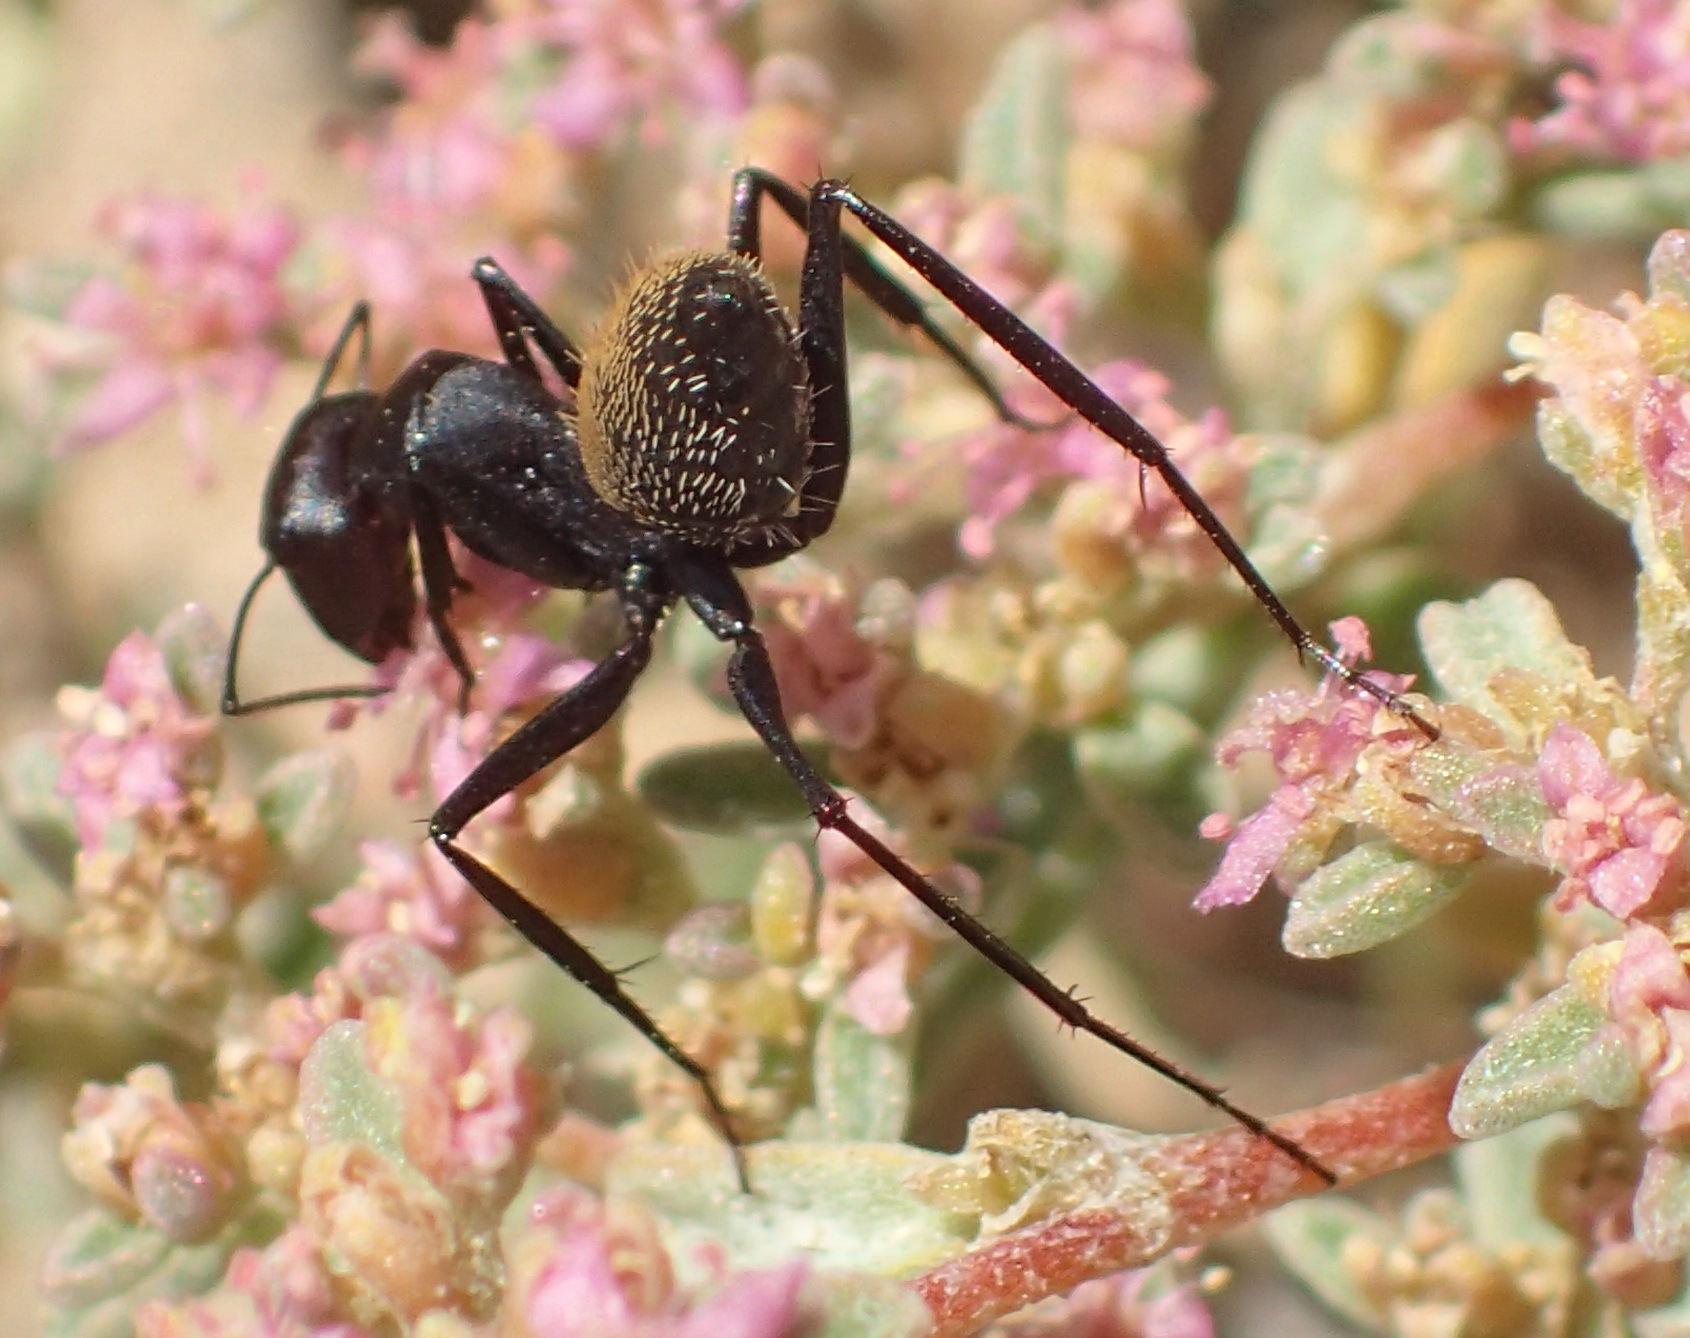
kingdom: Animalia
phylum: Arthropoda
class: Insecta
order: Hymenoptera
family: Formicidae
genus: Camponotus
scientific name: Camponotus fulvopilosus
